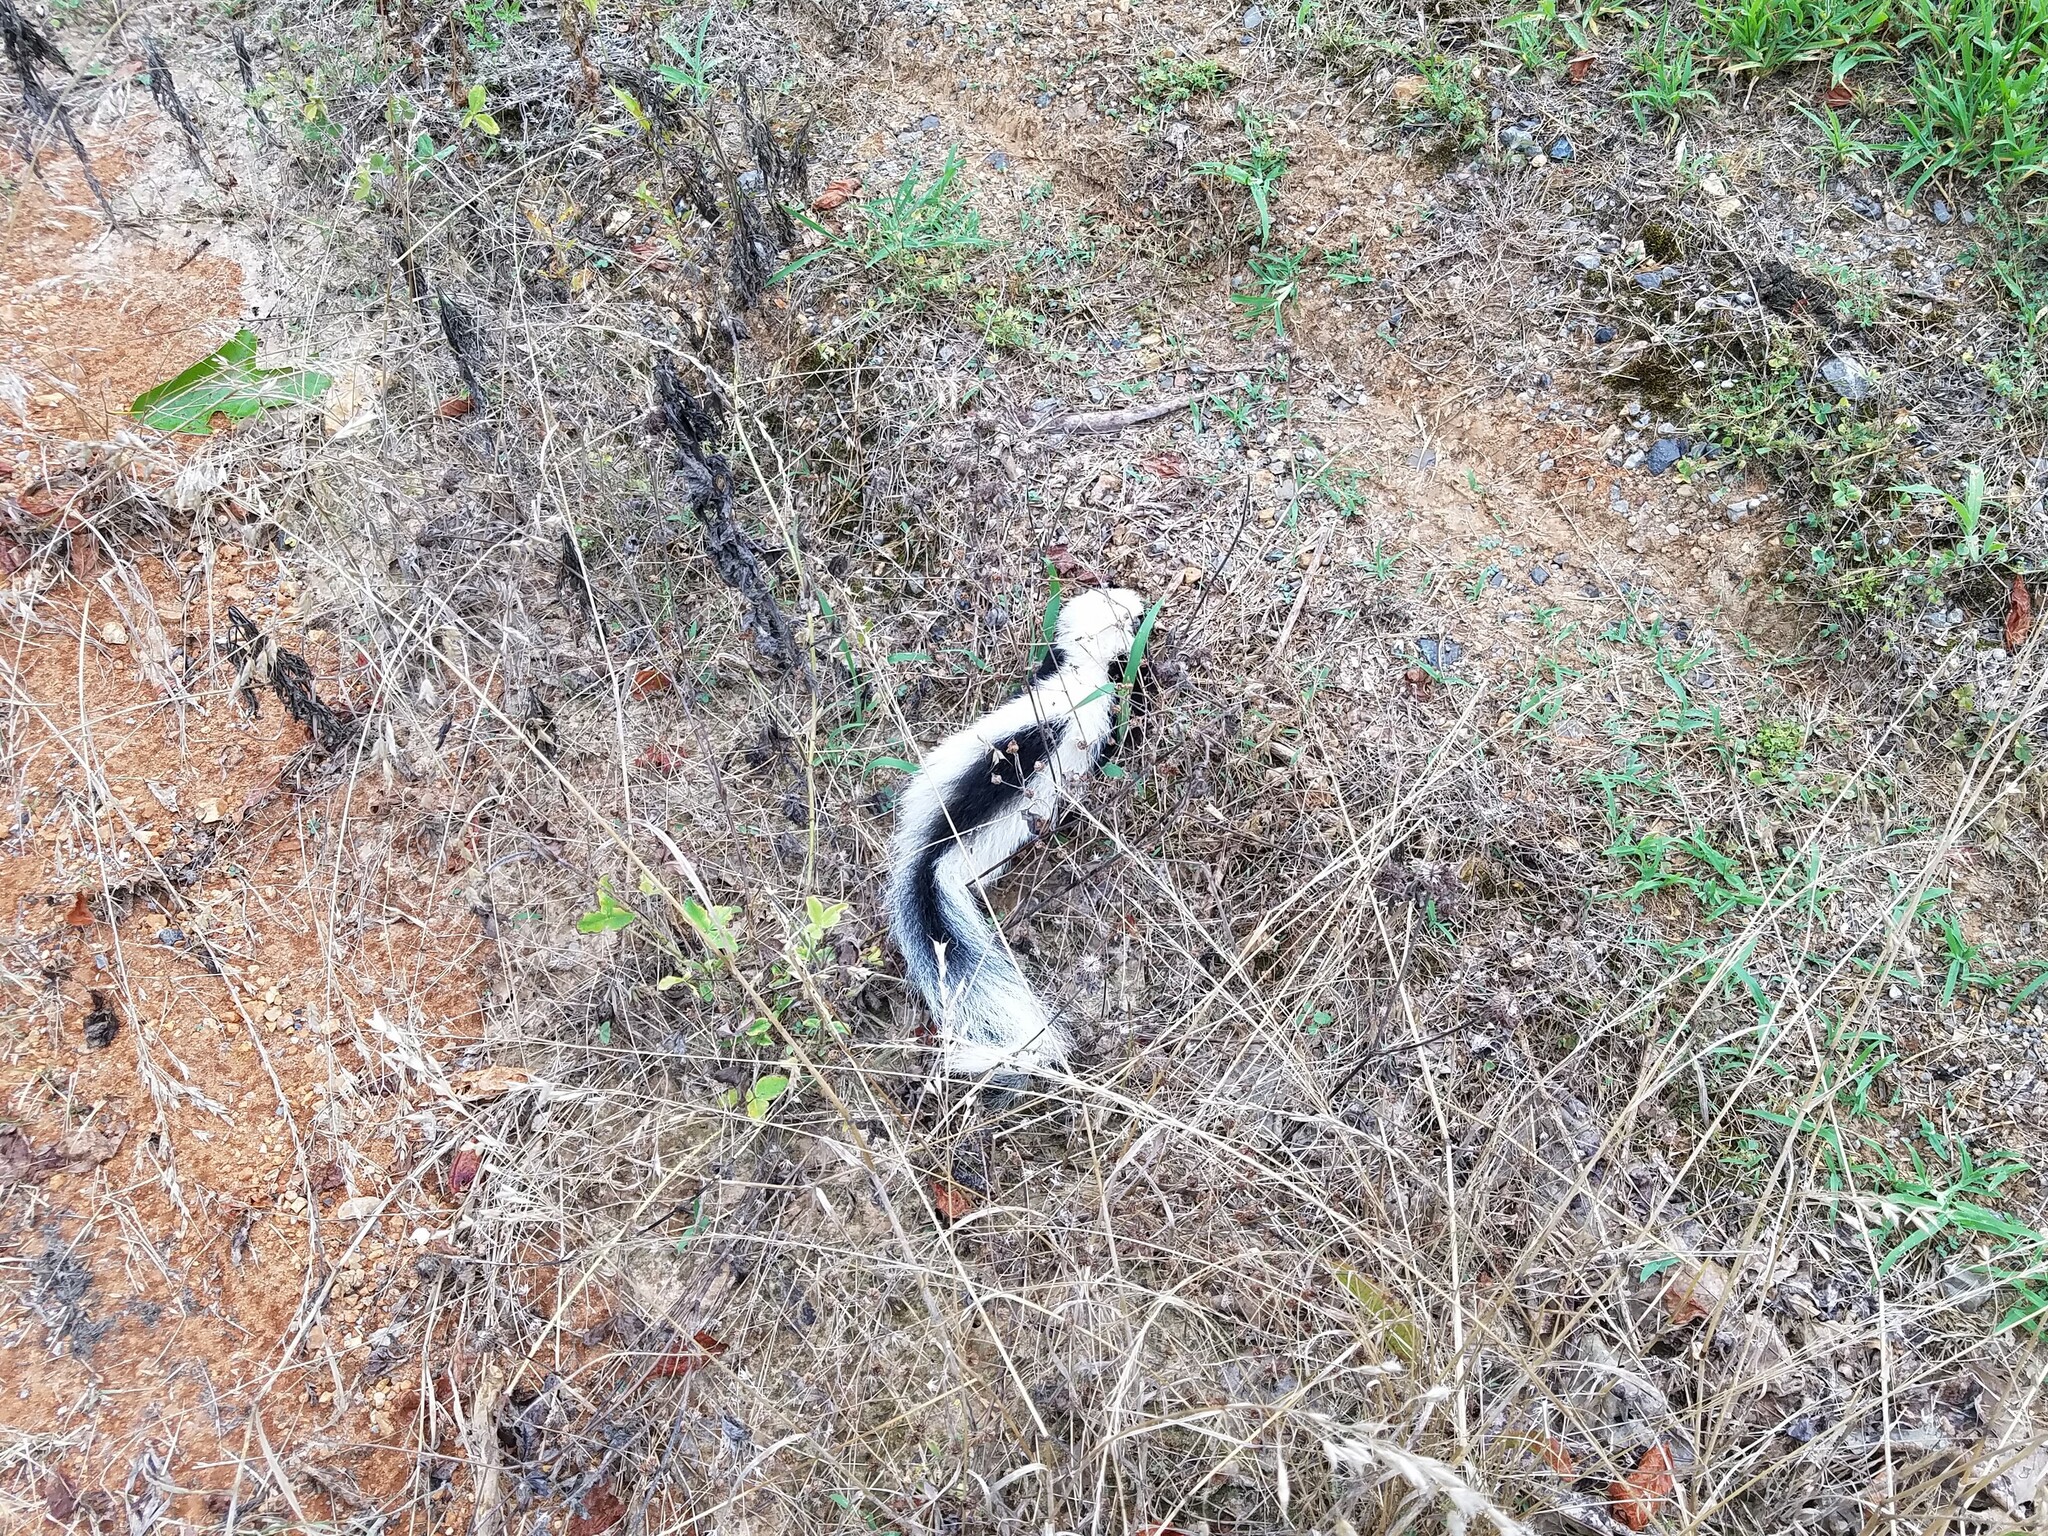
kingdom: Animalia
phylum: Chordata
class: Mammalia
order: Carnivora
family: Mephitidae
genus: Mephitis
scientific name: Mephitis mephitis
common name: Striped skunk
